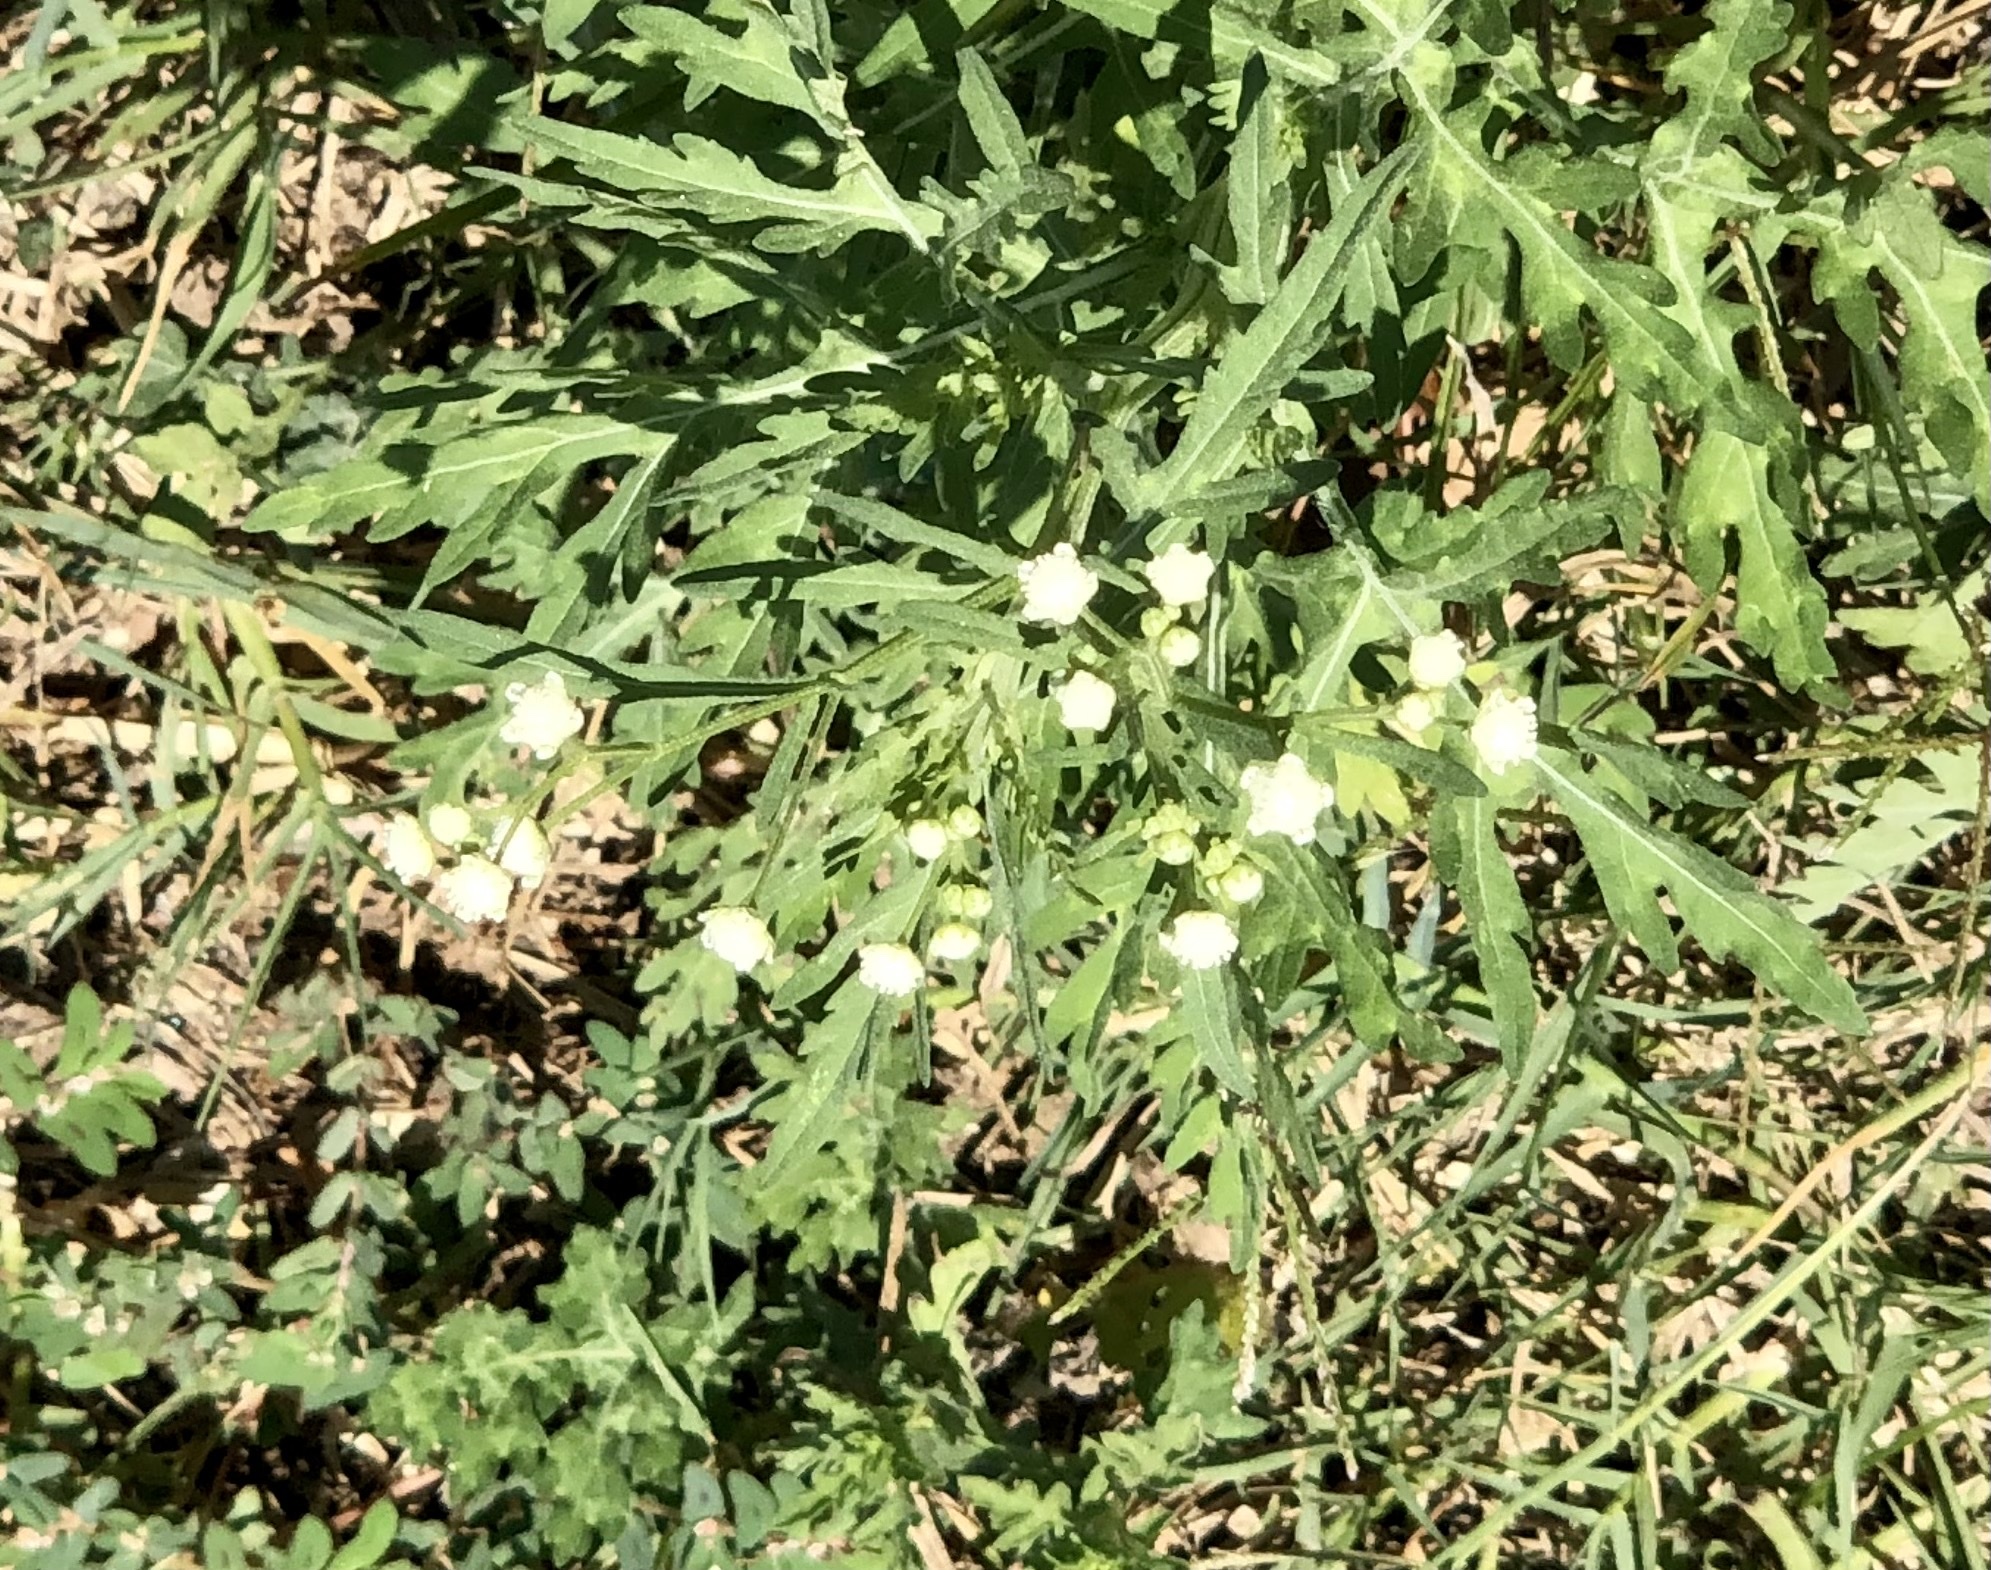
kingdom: Plantae
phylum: Tracheophyta
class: Magnoliopsida
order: Asterales
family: Asteraceae
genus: Parthenium
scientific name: Parthenium hysterophorus
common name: Santa maria feverfew
